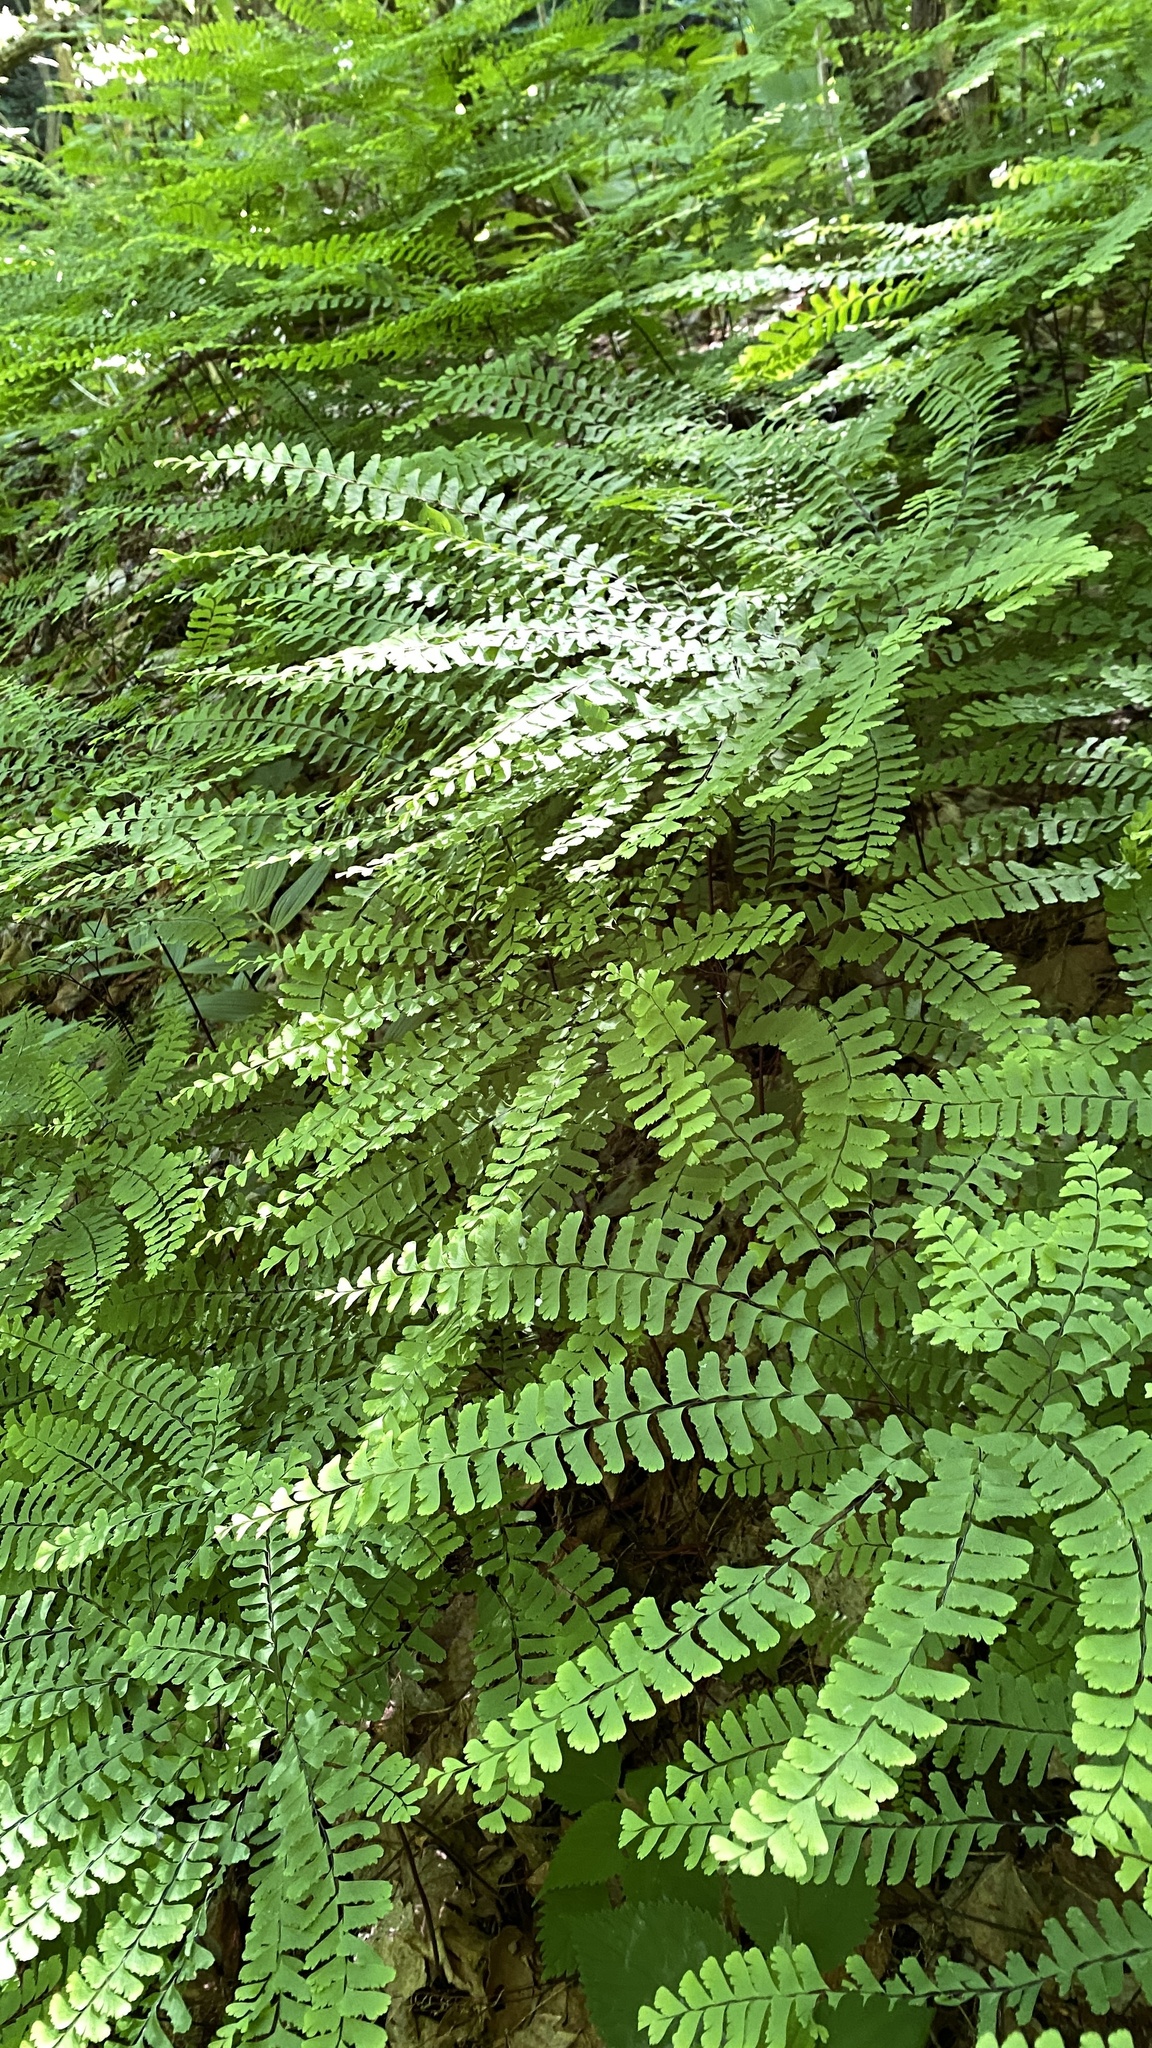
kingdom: Plantae
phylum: Tracheophyta
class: Polypodiopsida
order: Polypodiales
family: Pteridaceae
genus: Adiantum
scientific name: Adiantum pedatum
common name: Five-finger fern
